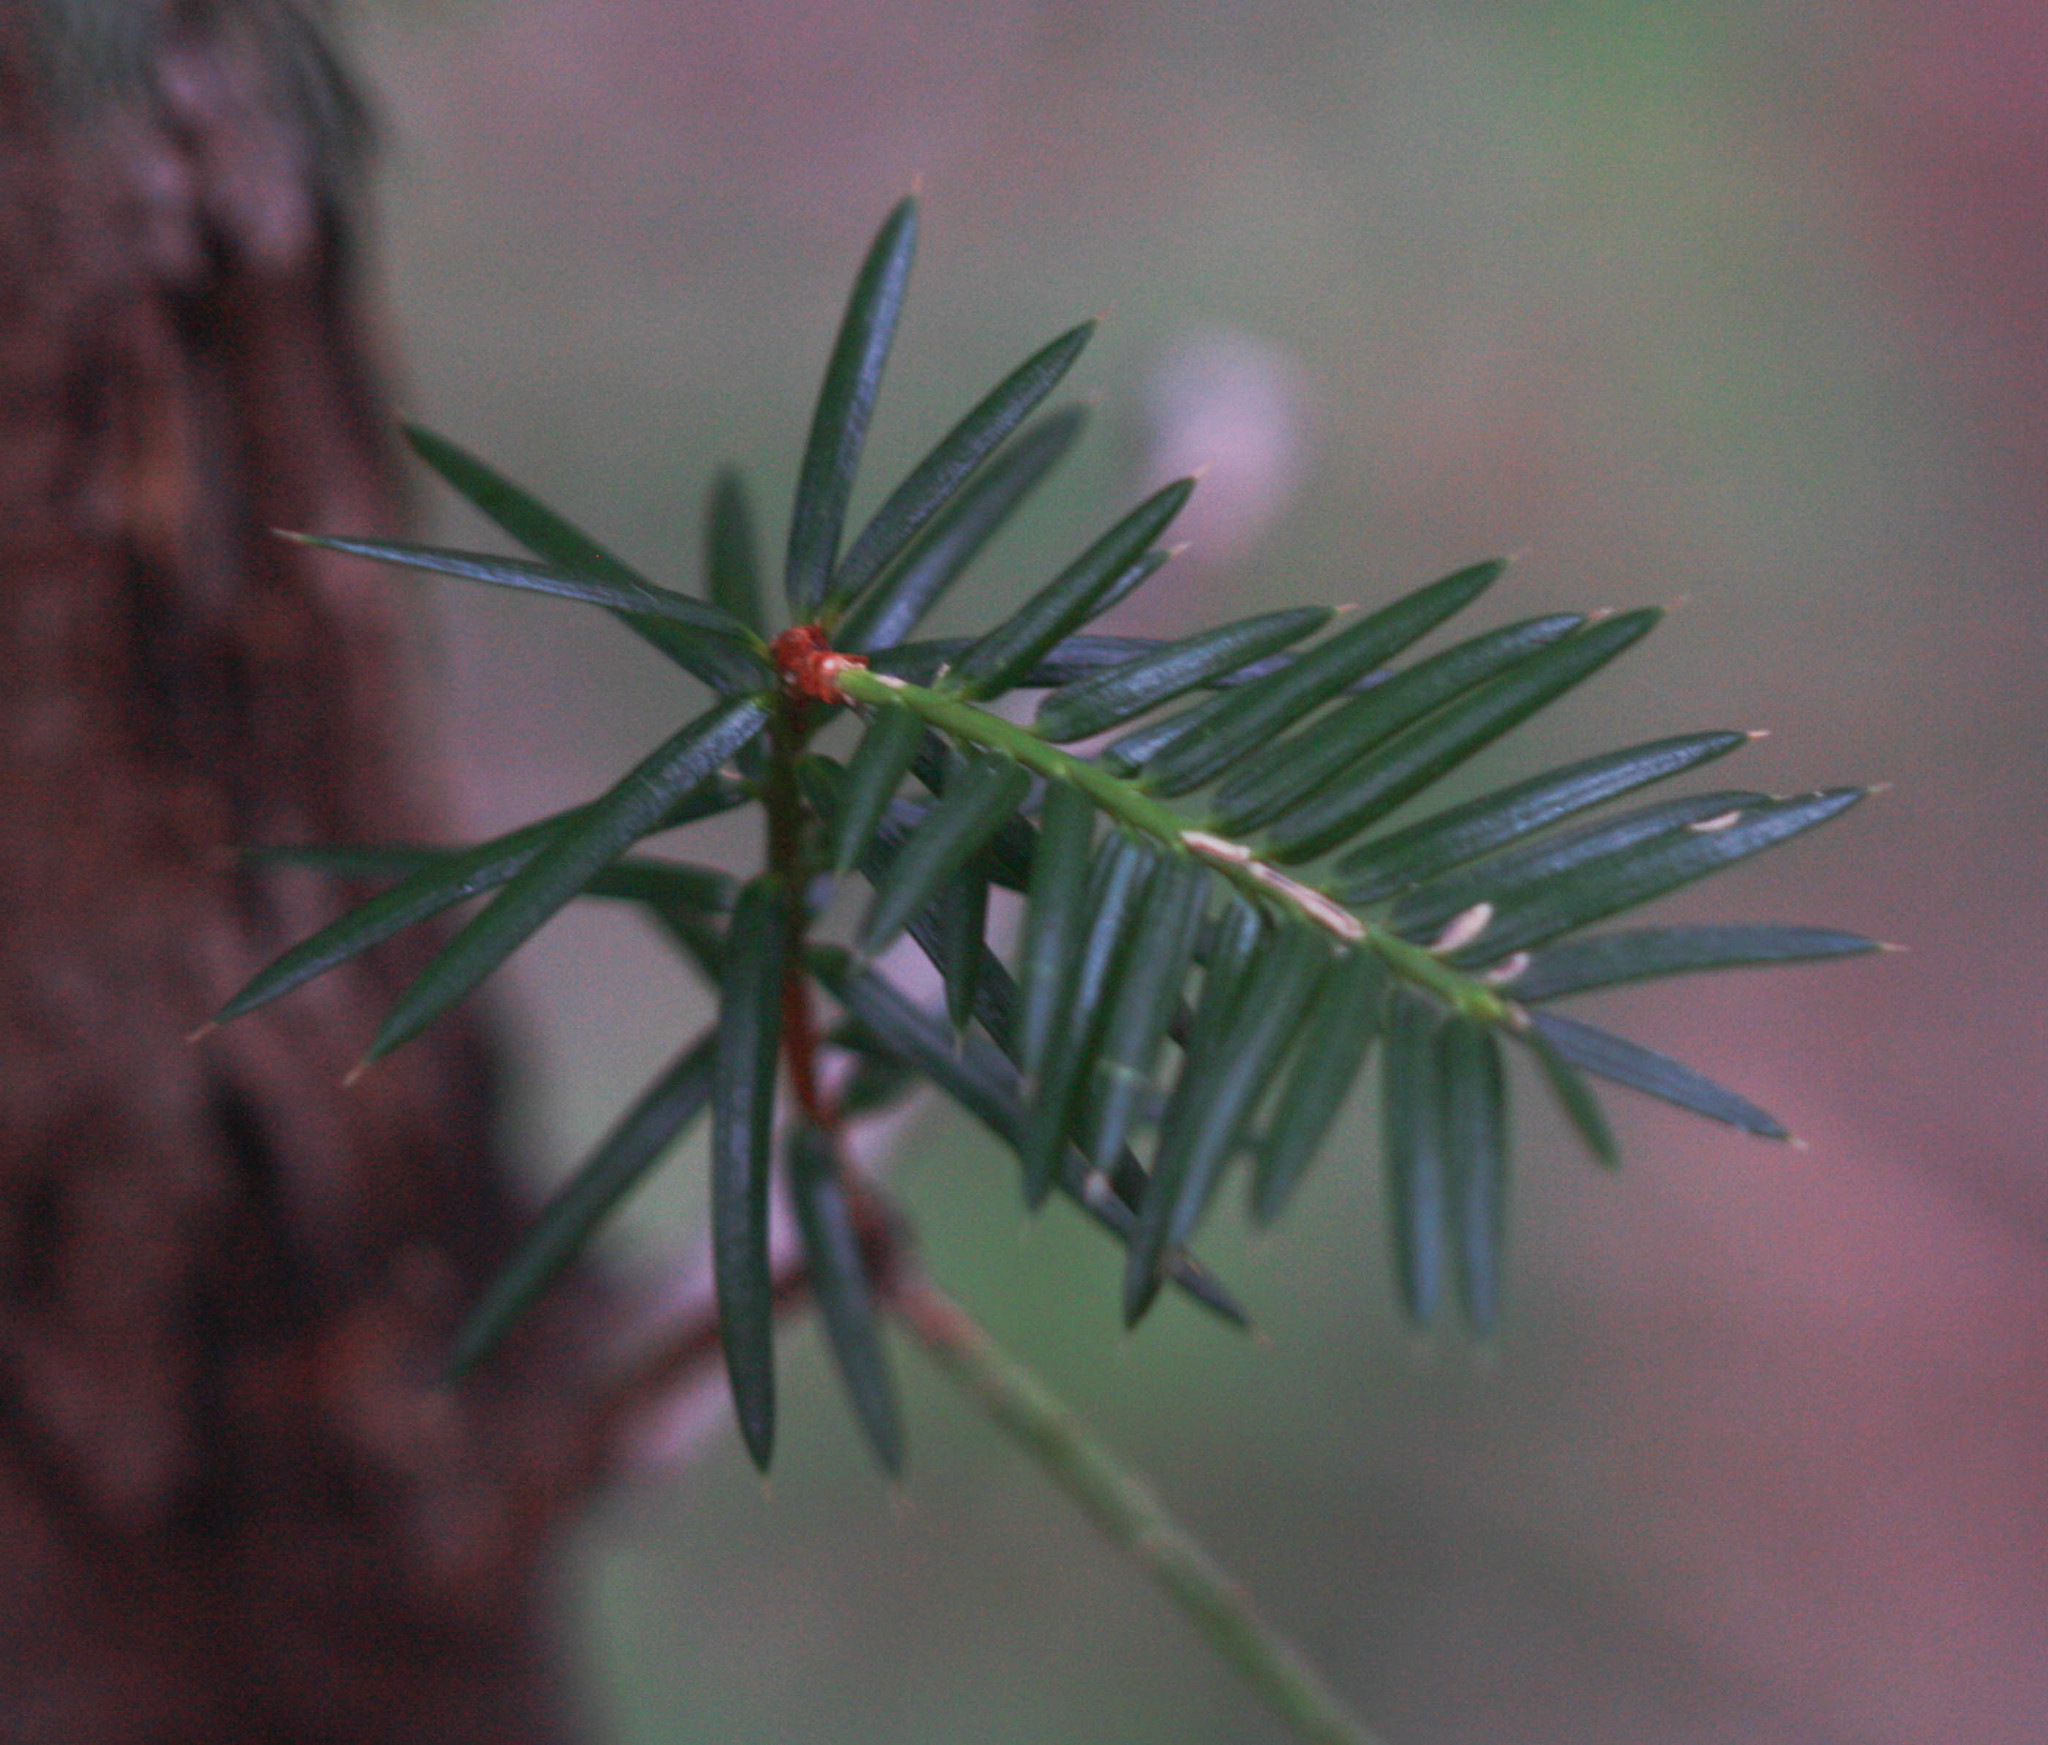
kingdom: Plantae
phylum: Tracheophyta
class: Pinopsida
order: Pinales
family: Taxaceae
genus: Torreya
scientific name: Torreya californica
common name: California torreya
